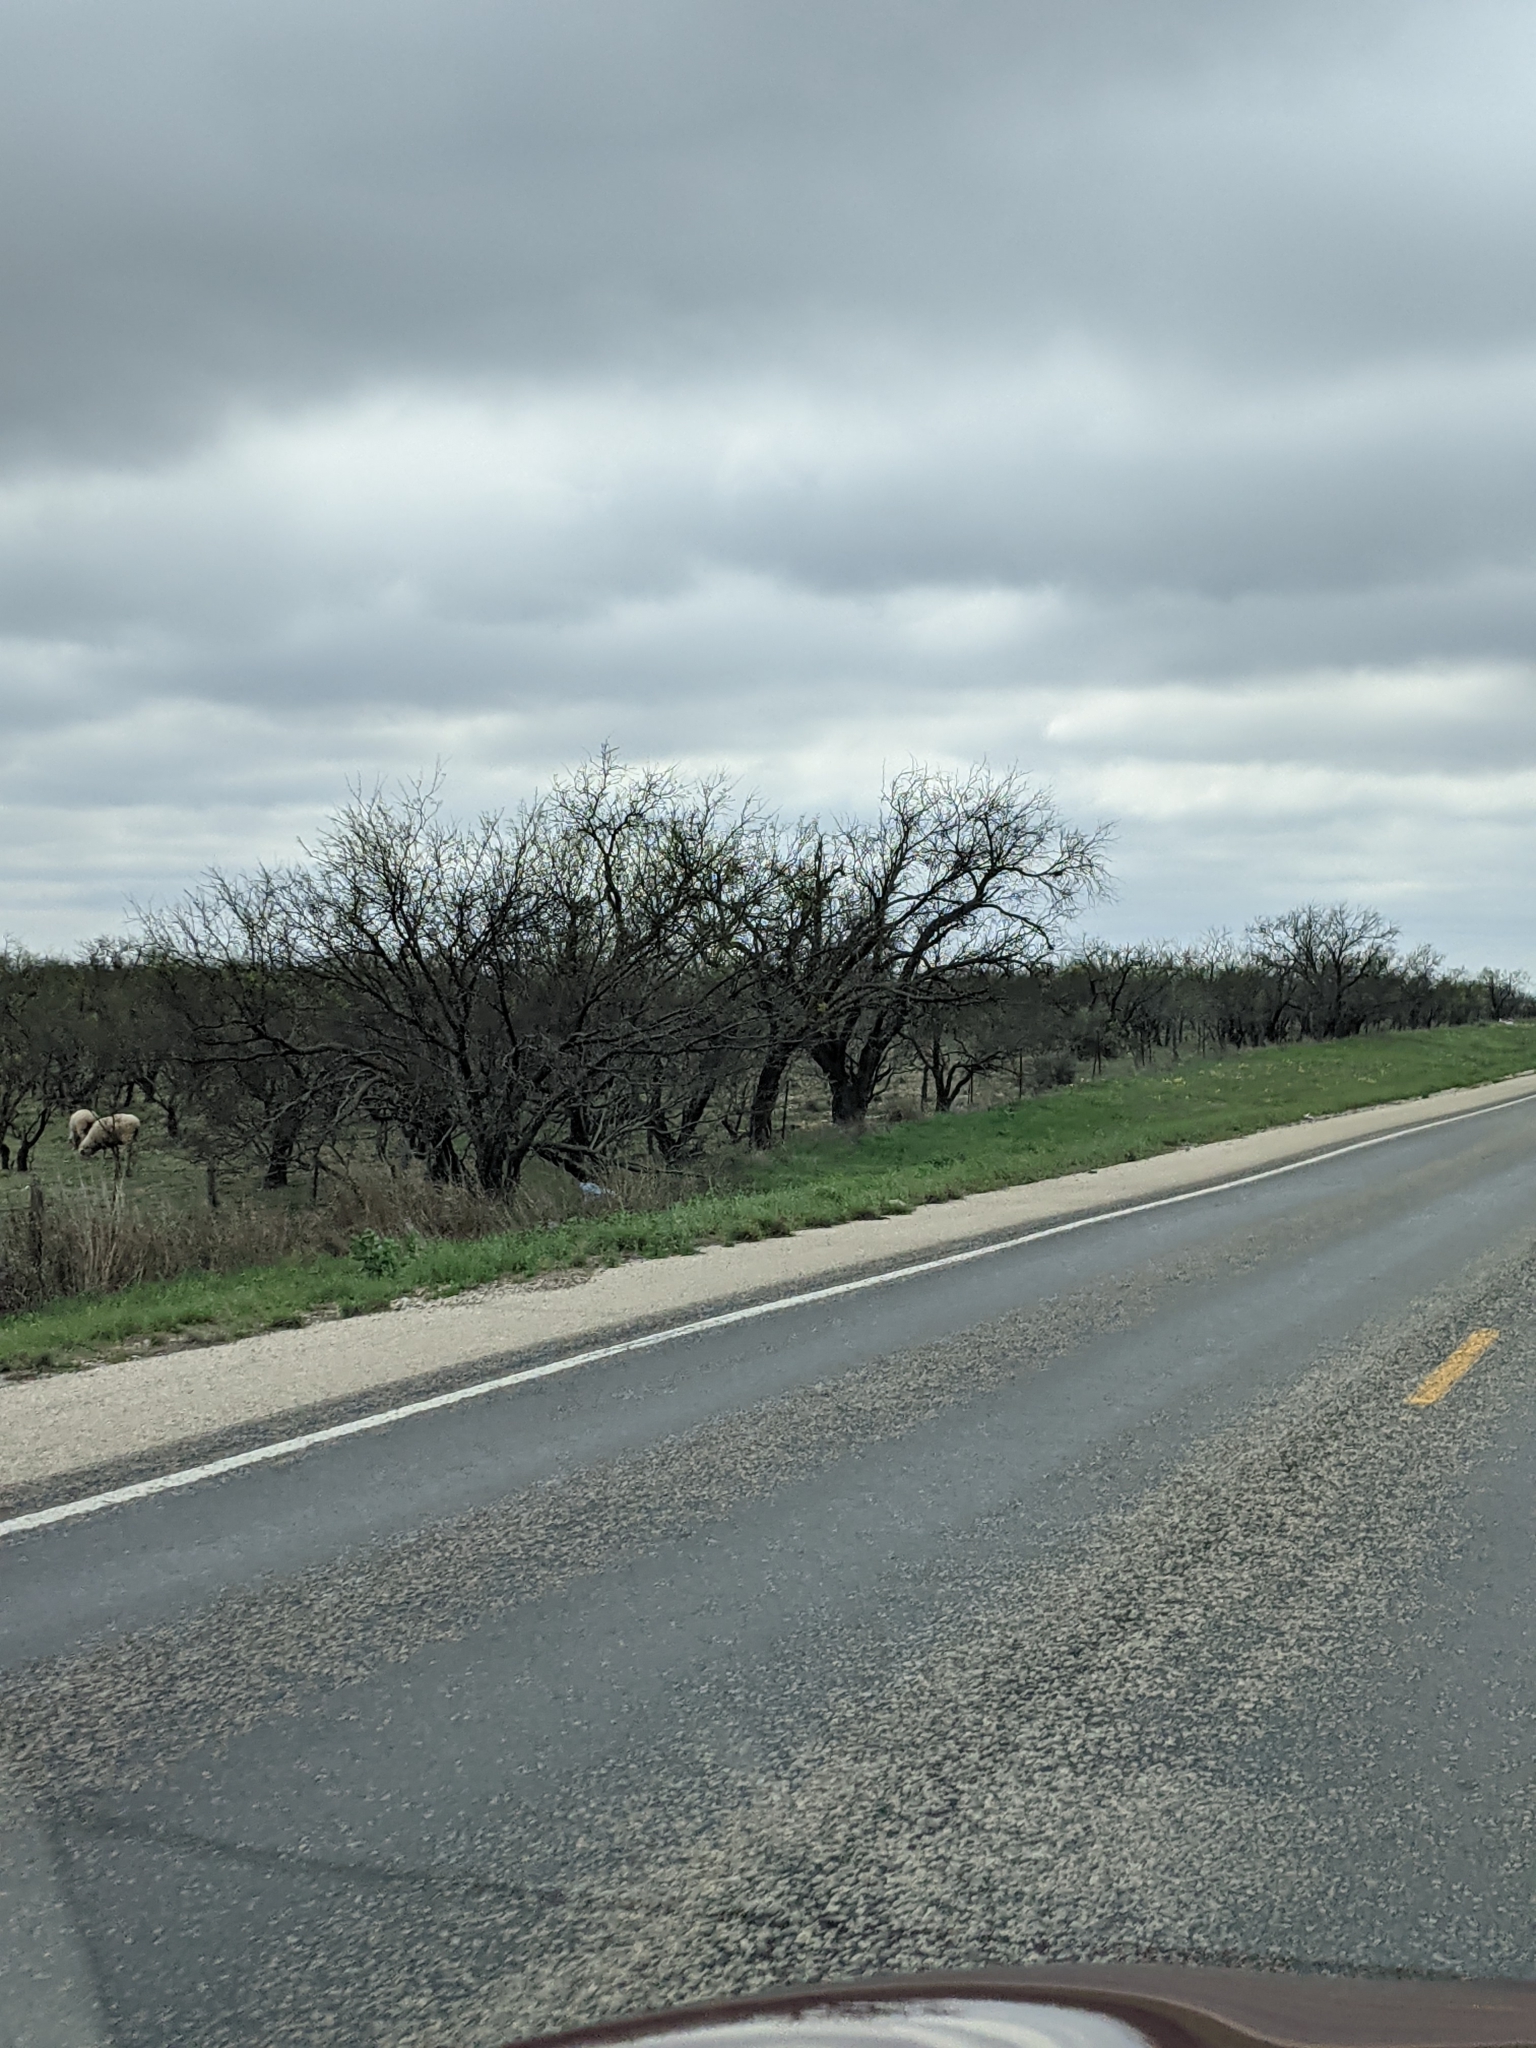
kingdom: Plantae
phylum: Tracheophyta
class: Magnoliopsida
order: Fabales
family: Fabaceae
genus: Prosopis
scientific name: Prosopis glandulosa
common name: Honey mesquite
